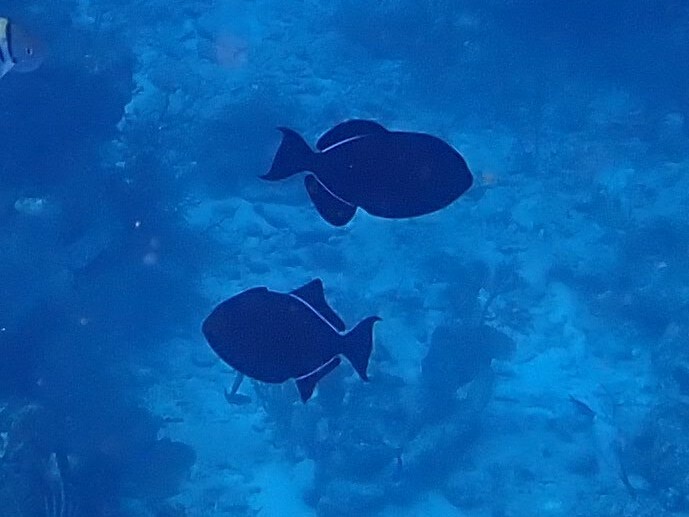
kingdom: Animalia
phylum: Chordata
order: Tetraodontiformes
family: Balistidae
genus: Melichthys
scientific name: Melichthys niger
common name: Black durgon
